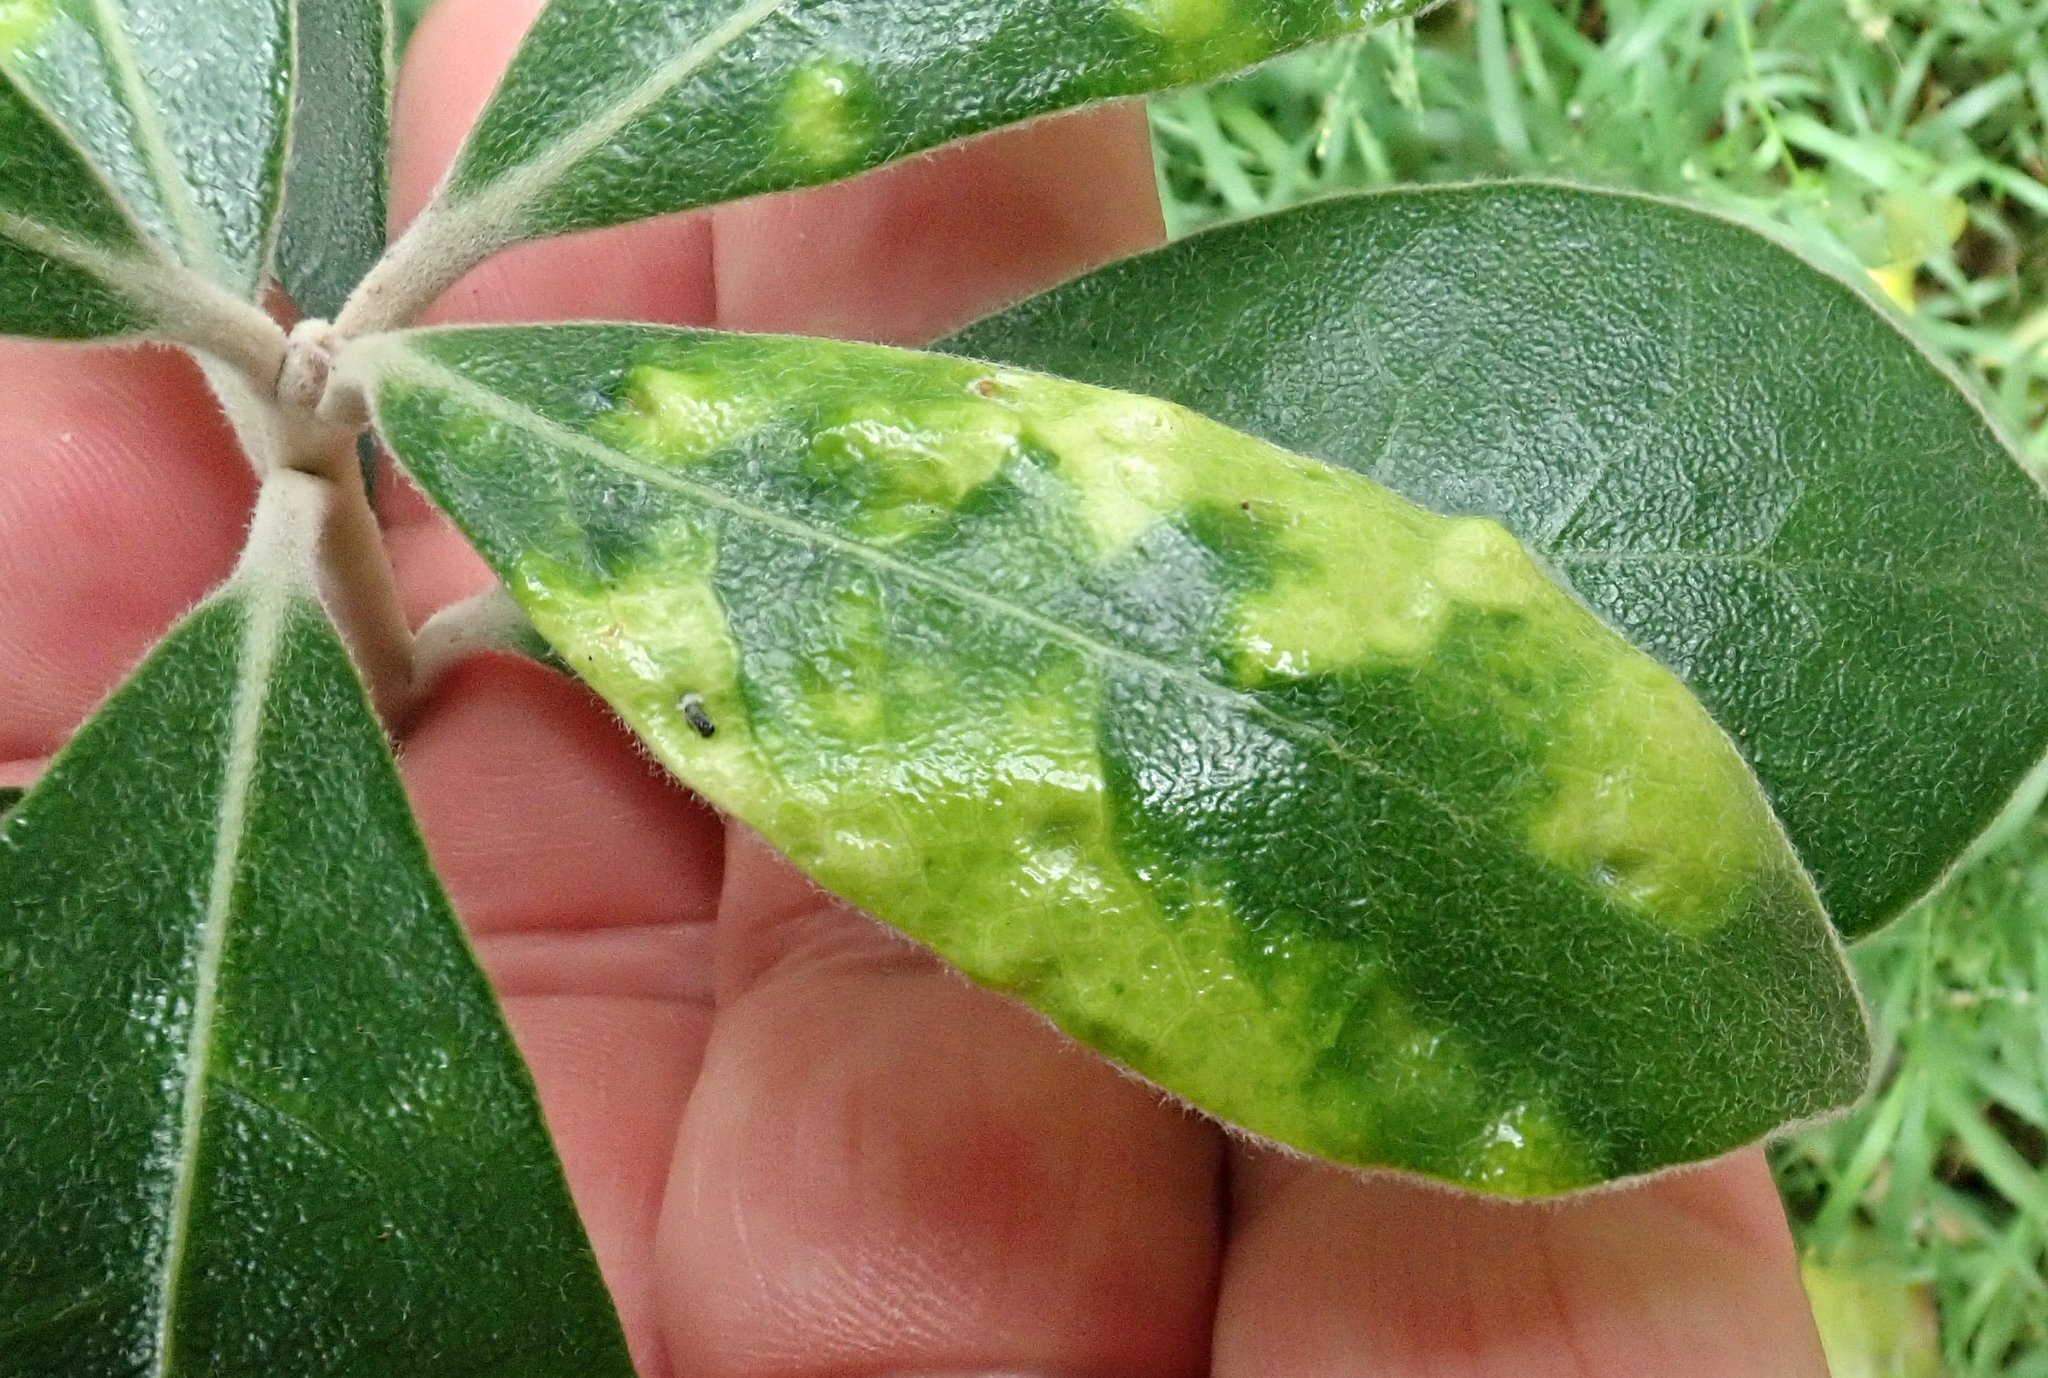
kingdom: Animalia
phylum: Arthropoda
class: Insecta
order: Hemiptera
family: Triozidae
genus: Powellia
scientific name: Powellia vitreoradiata
